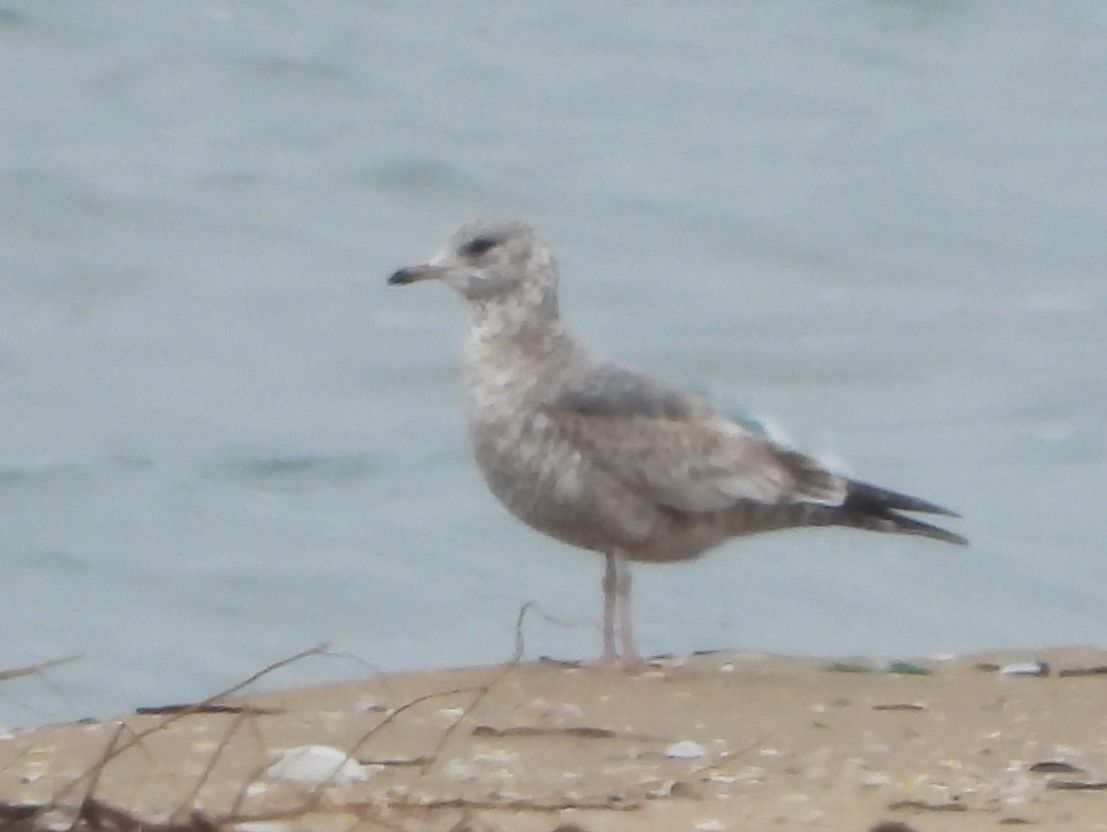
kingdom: Animalia
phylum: Chordata
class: Aves
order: Charadriiformes
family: Laridae
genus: Larus
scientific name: Larus canus
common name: Mew gull
